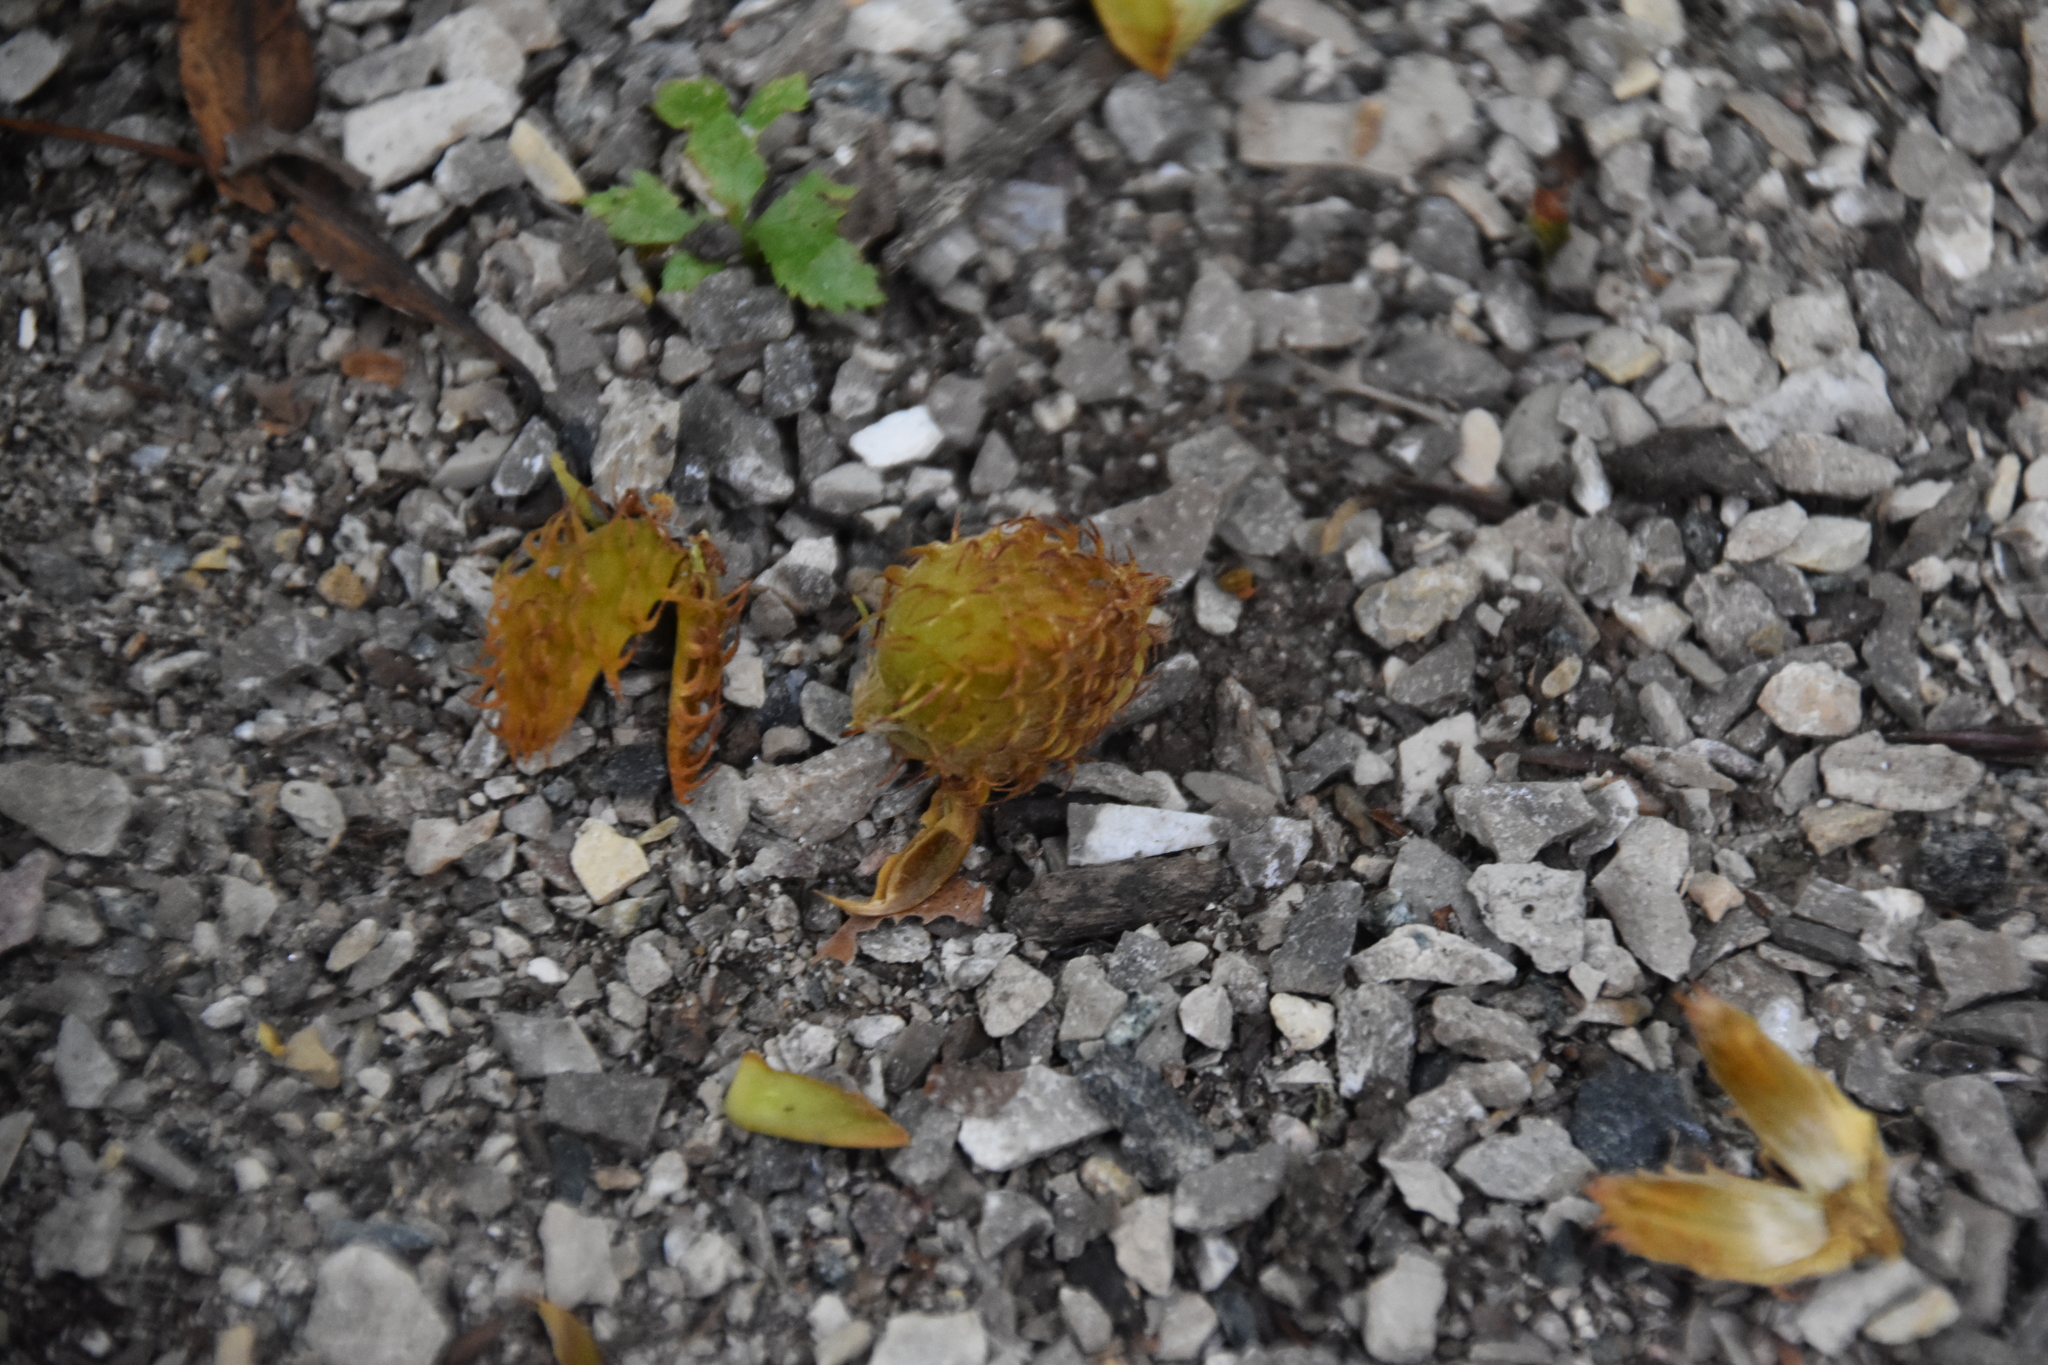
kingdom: Plantae
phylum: Tracheophyta
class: Magnoliopsida
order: Fagales
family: Fagaceae
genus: Fagus
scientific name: Fagus grandifolia
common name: American beech
